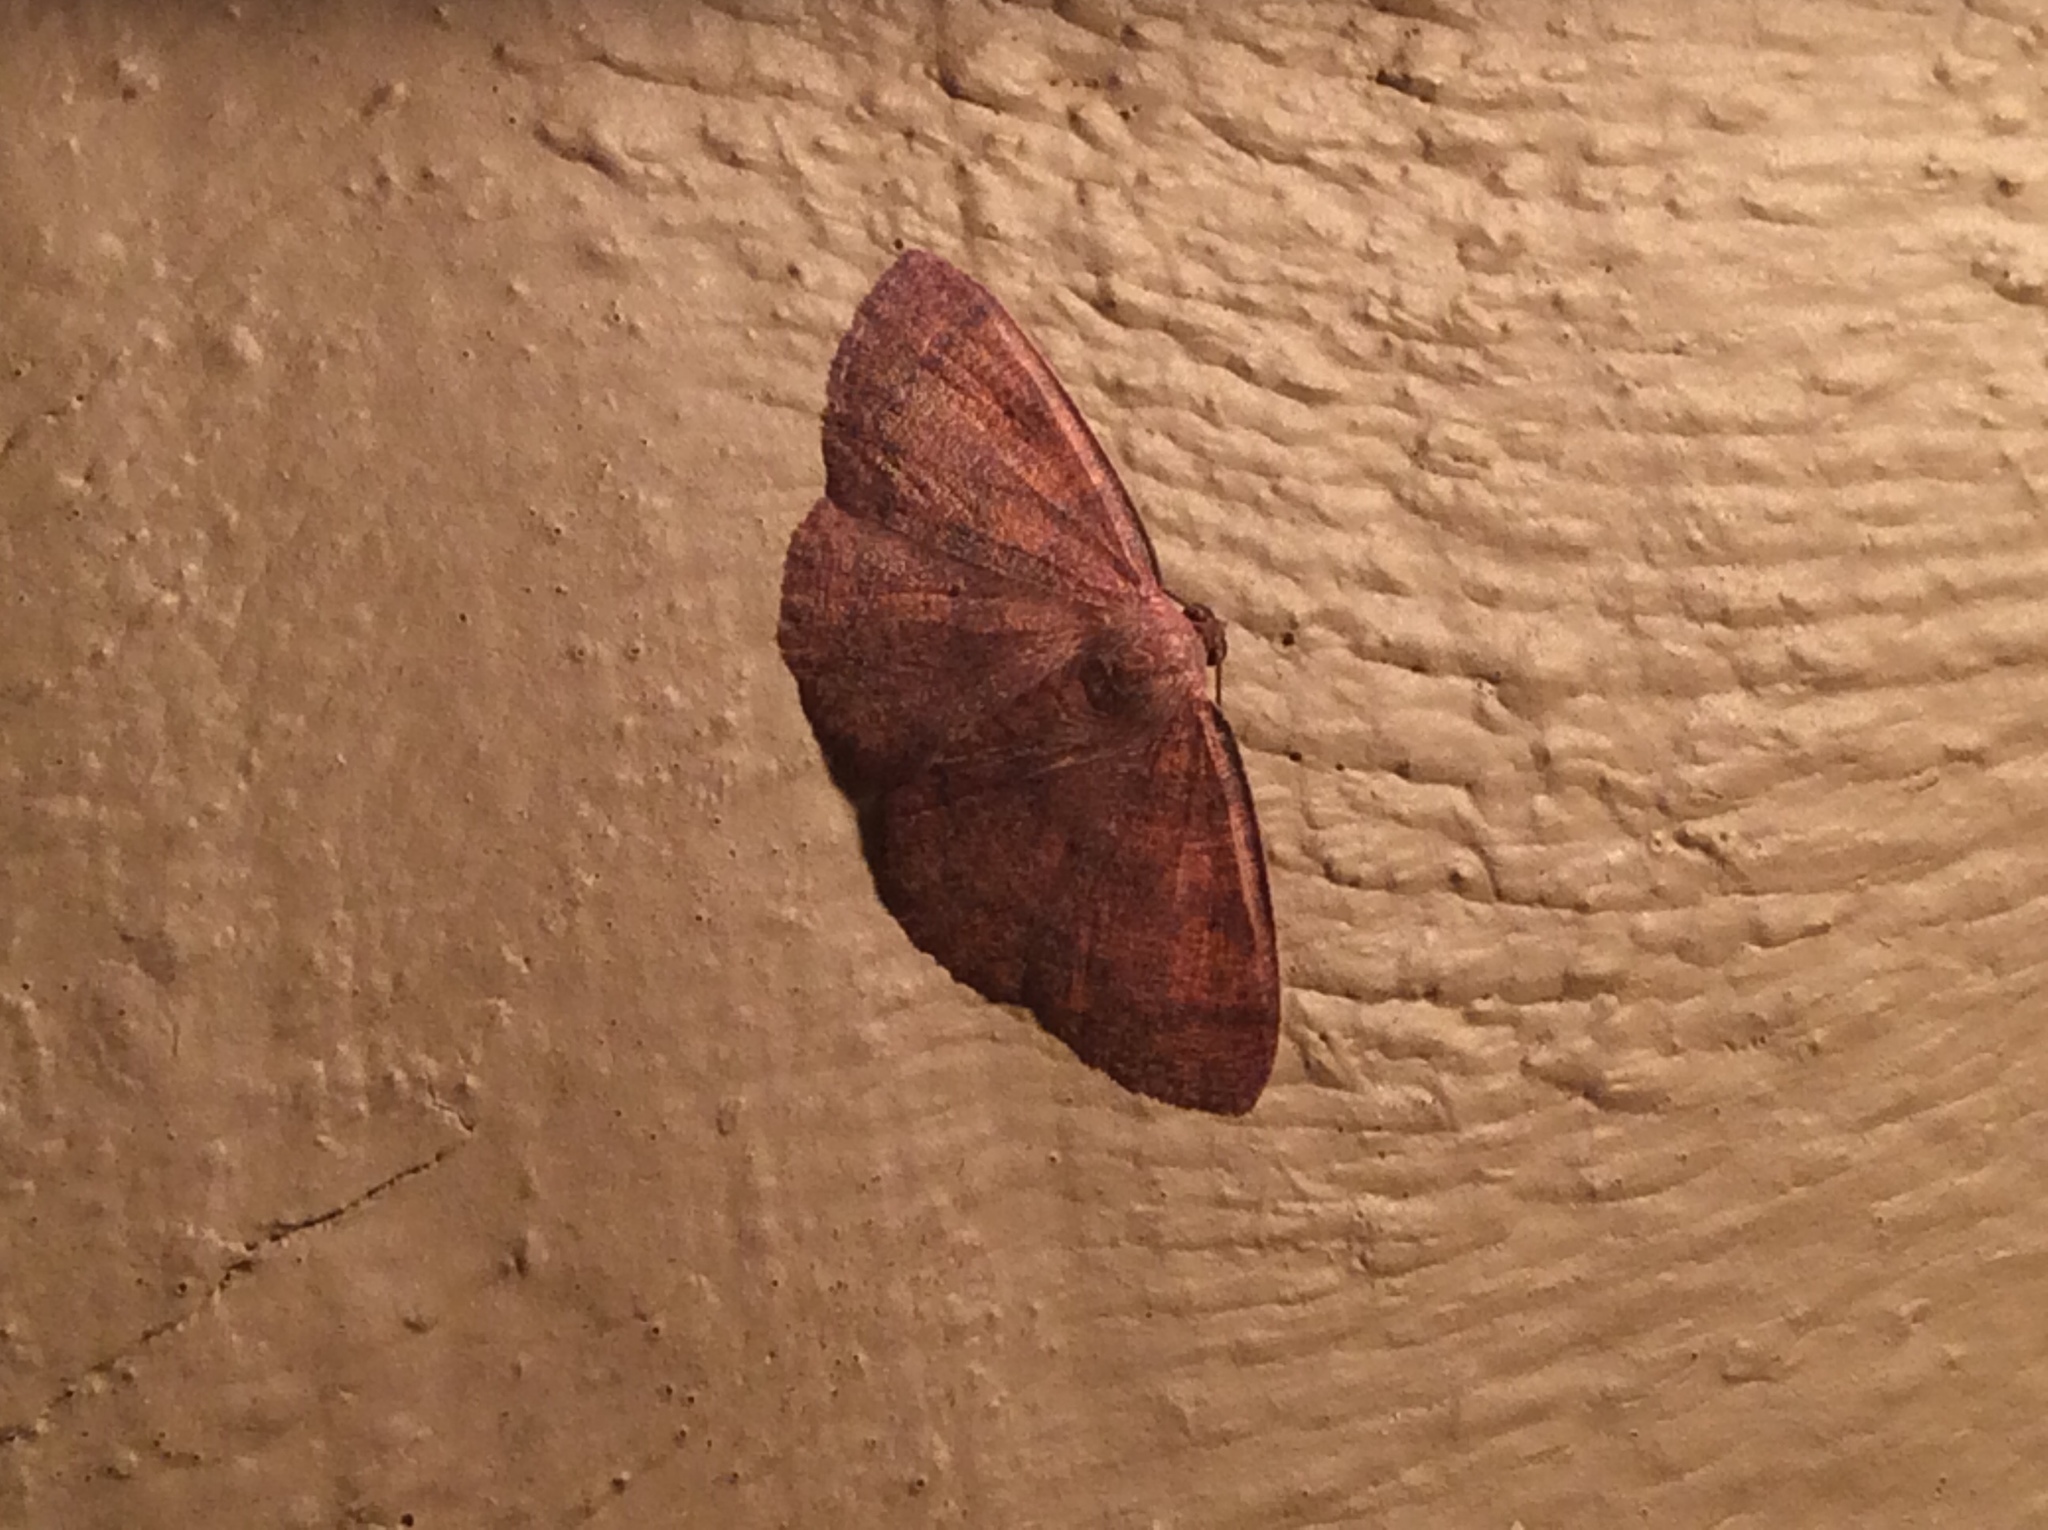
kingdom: Animalia
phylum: Arthropoda
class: Insecta
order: Lepidoptera
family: Geometridae
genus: Ilexia
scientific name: Ilexia intractata
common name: Black-dotted ruddy moth
